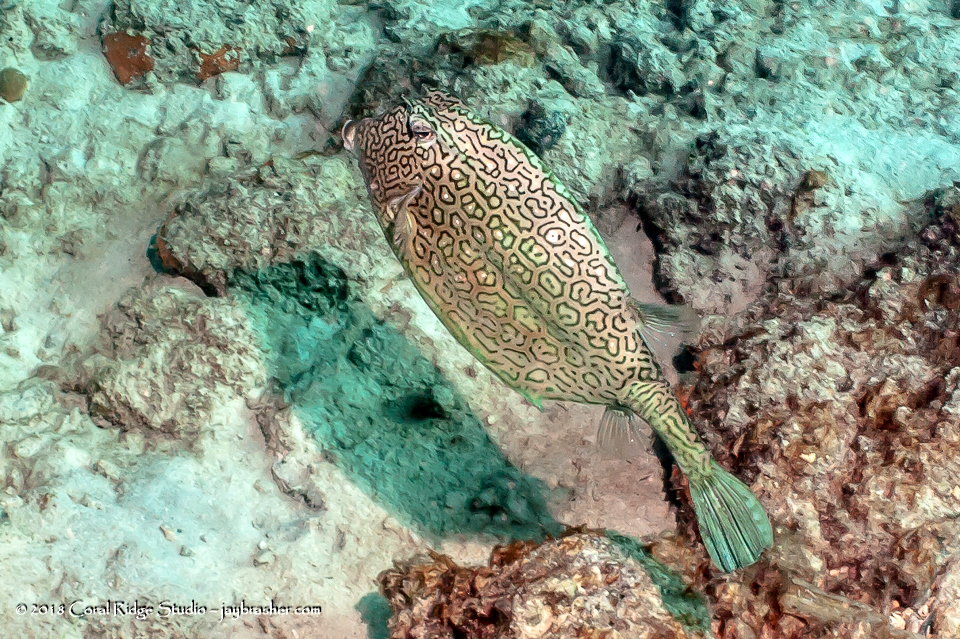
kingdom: Animalia
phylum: Chordata
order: Tetraodontiformes
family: Ostraciidae
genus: Acanthostracion
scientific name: Acanthostracion polygonius
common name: Honeycomb cowfish
